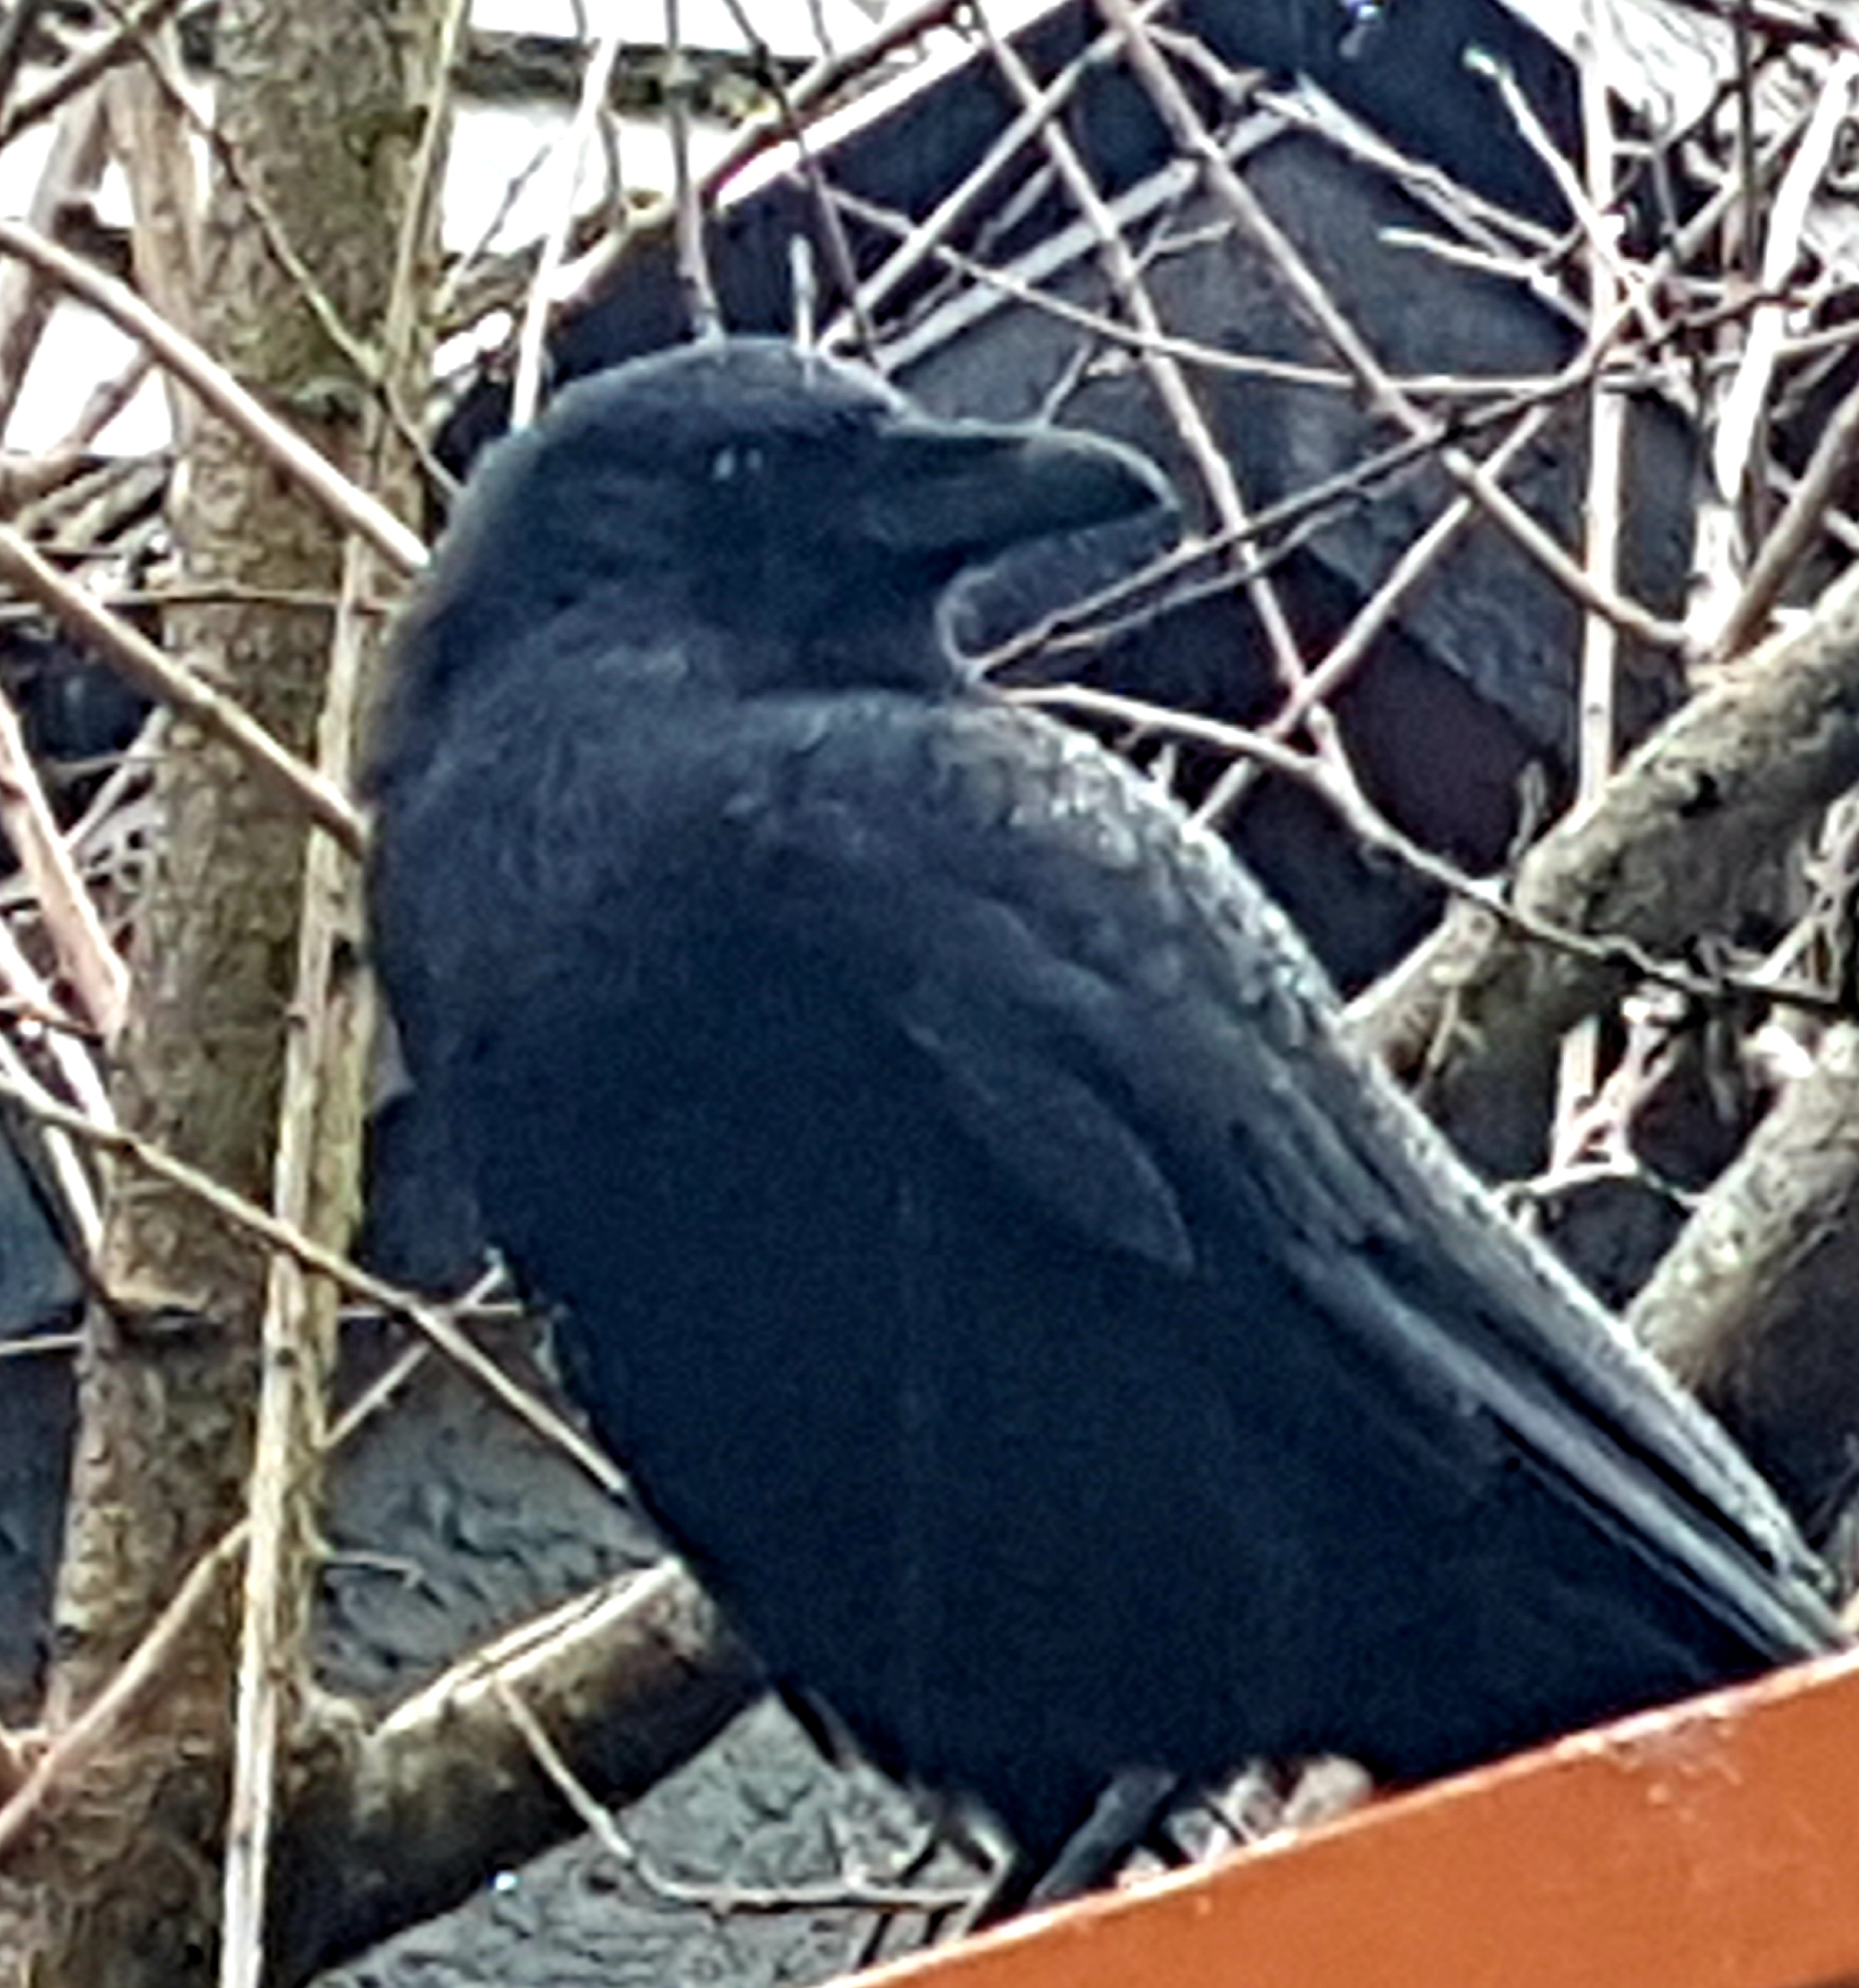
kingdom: Animalia
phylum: Chordata
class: Aves
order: Passeriformes
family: Corvidae
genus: Corvus
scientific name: Corvus brachyrhynchos
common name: American crow
